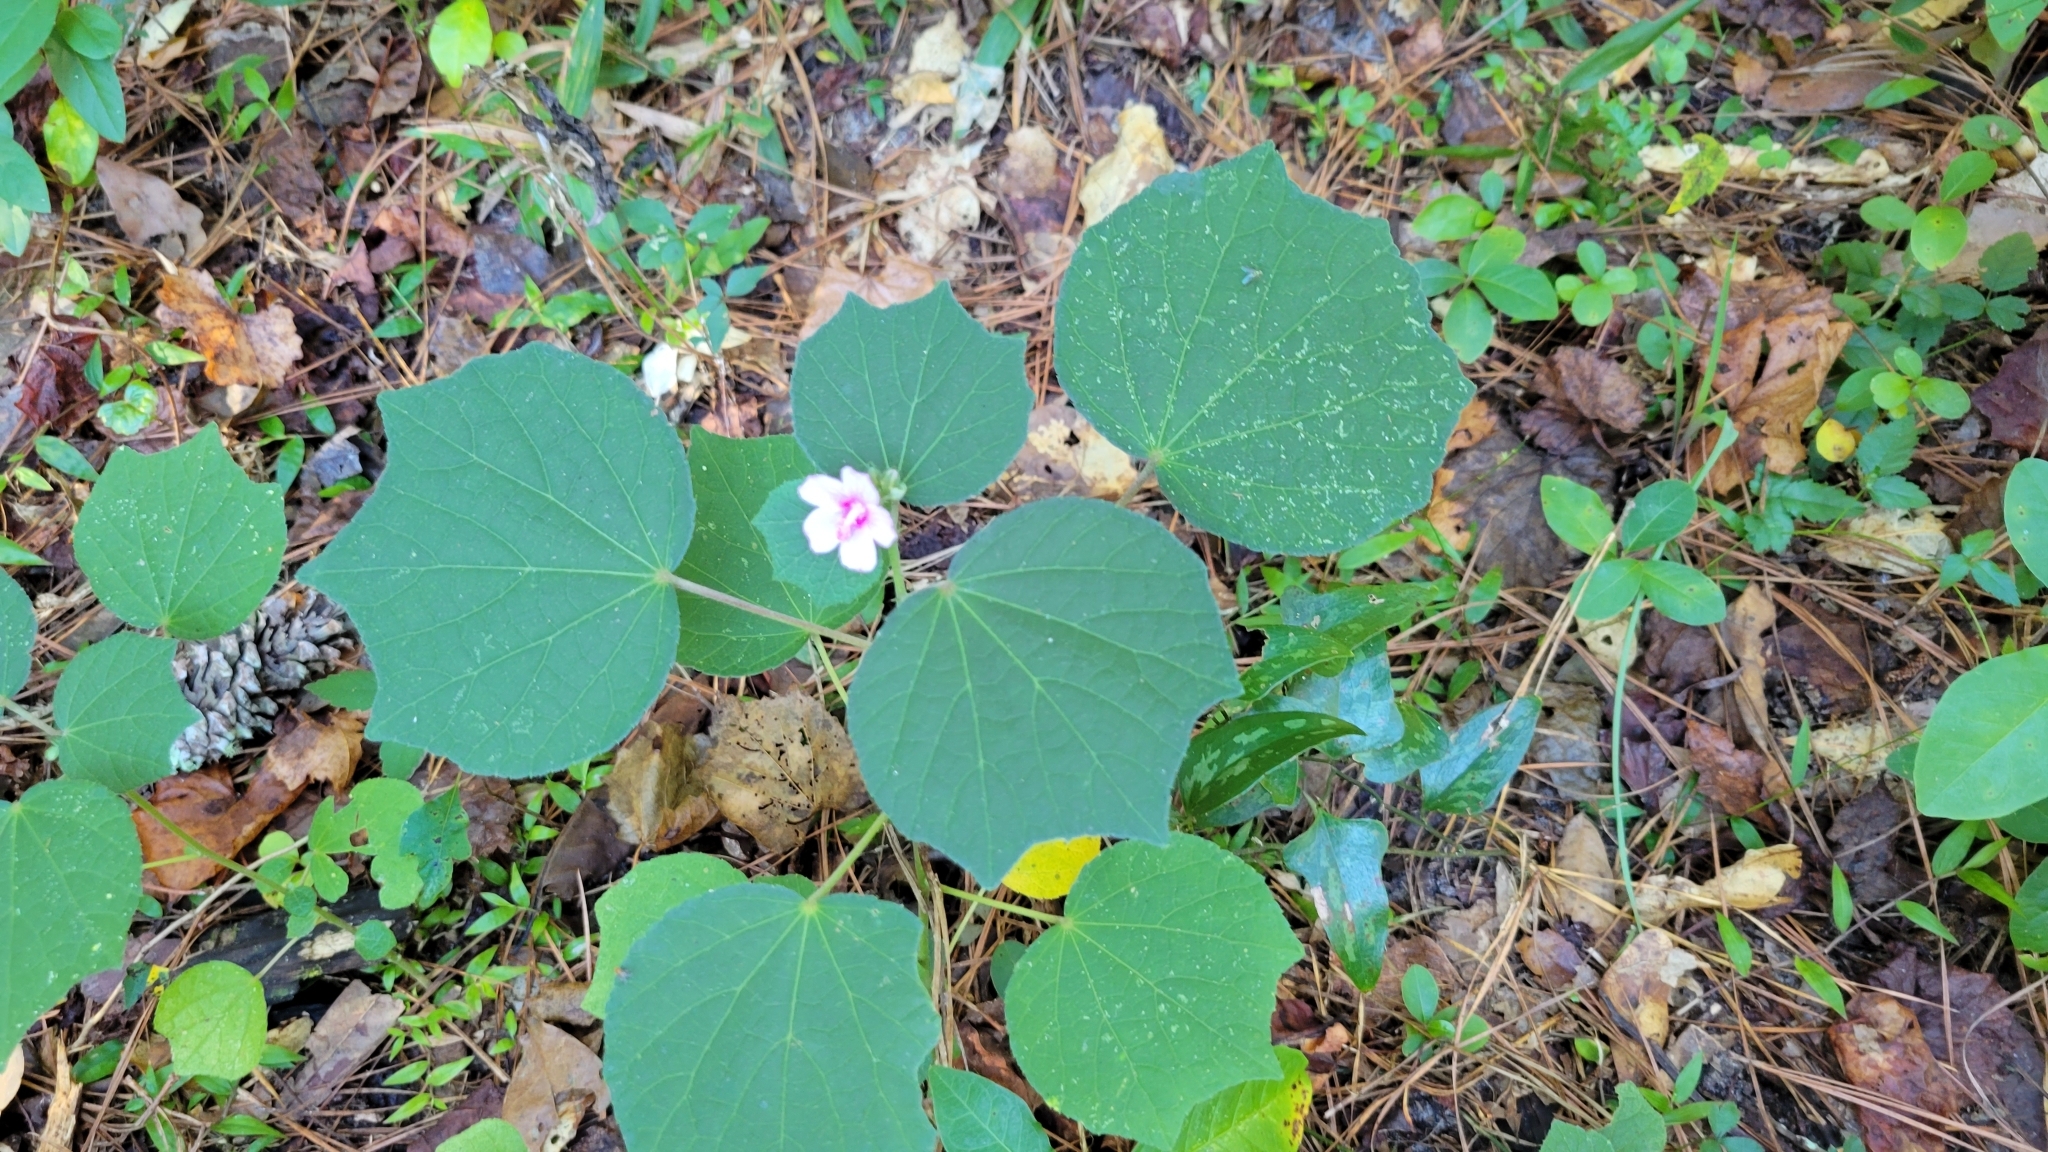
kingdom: Plantae
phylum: Tracheophyta
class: Magnoliopsida
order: Malvales
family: Malvaceae
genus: Urena
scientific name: Urena lobata
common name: Caesarweed
